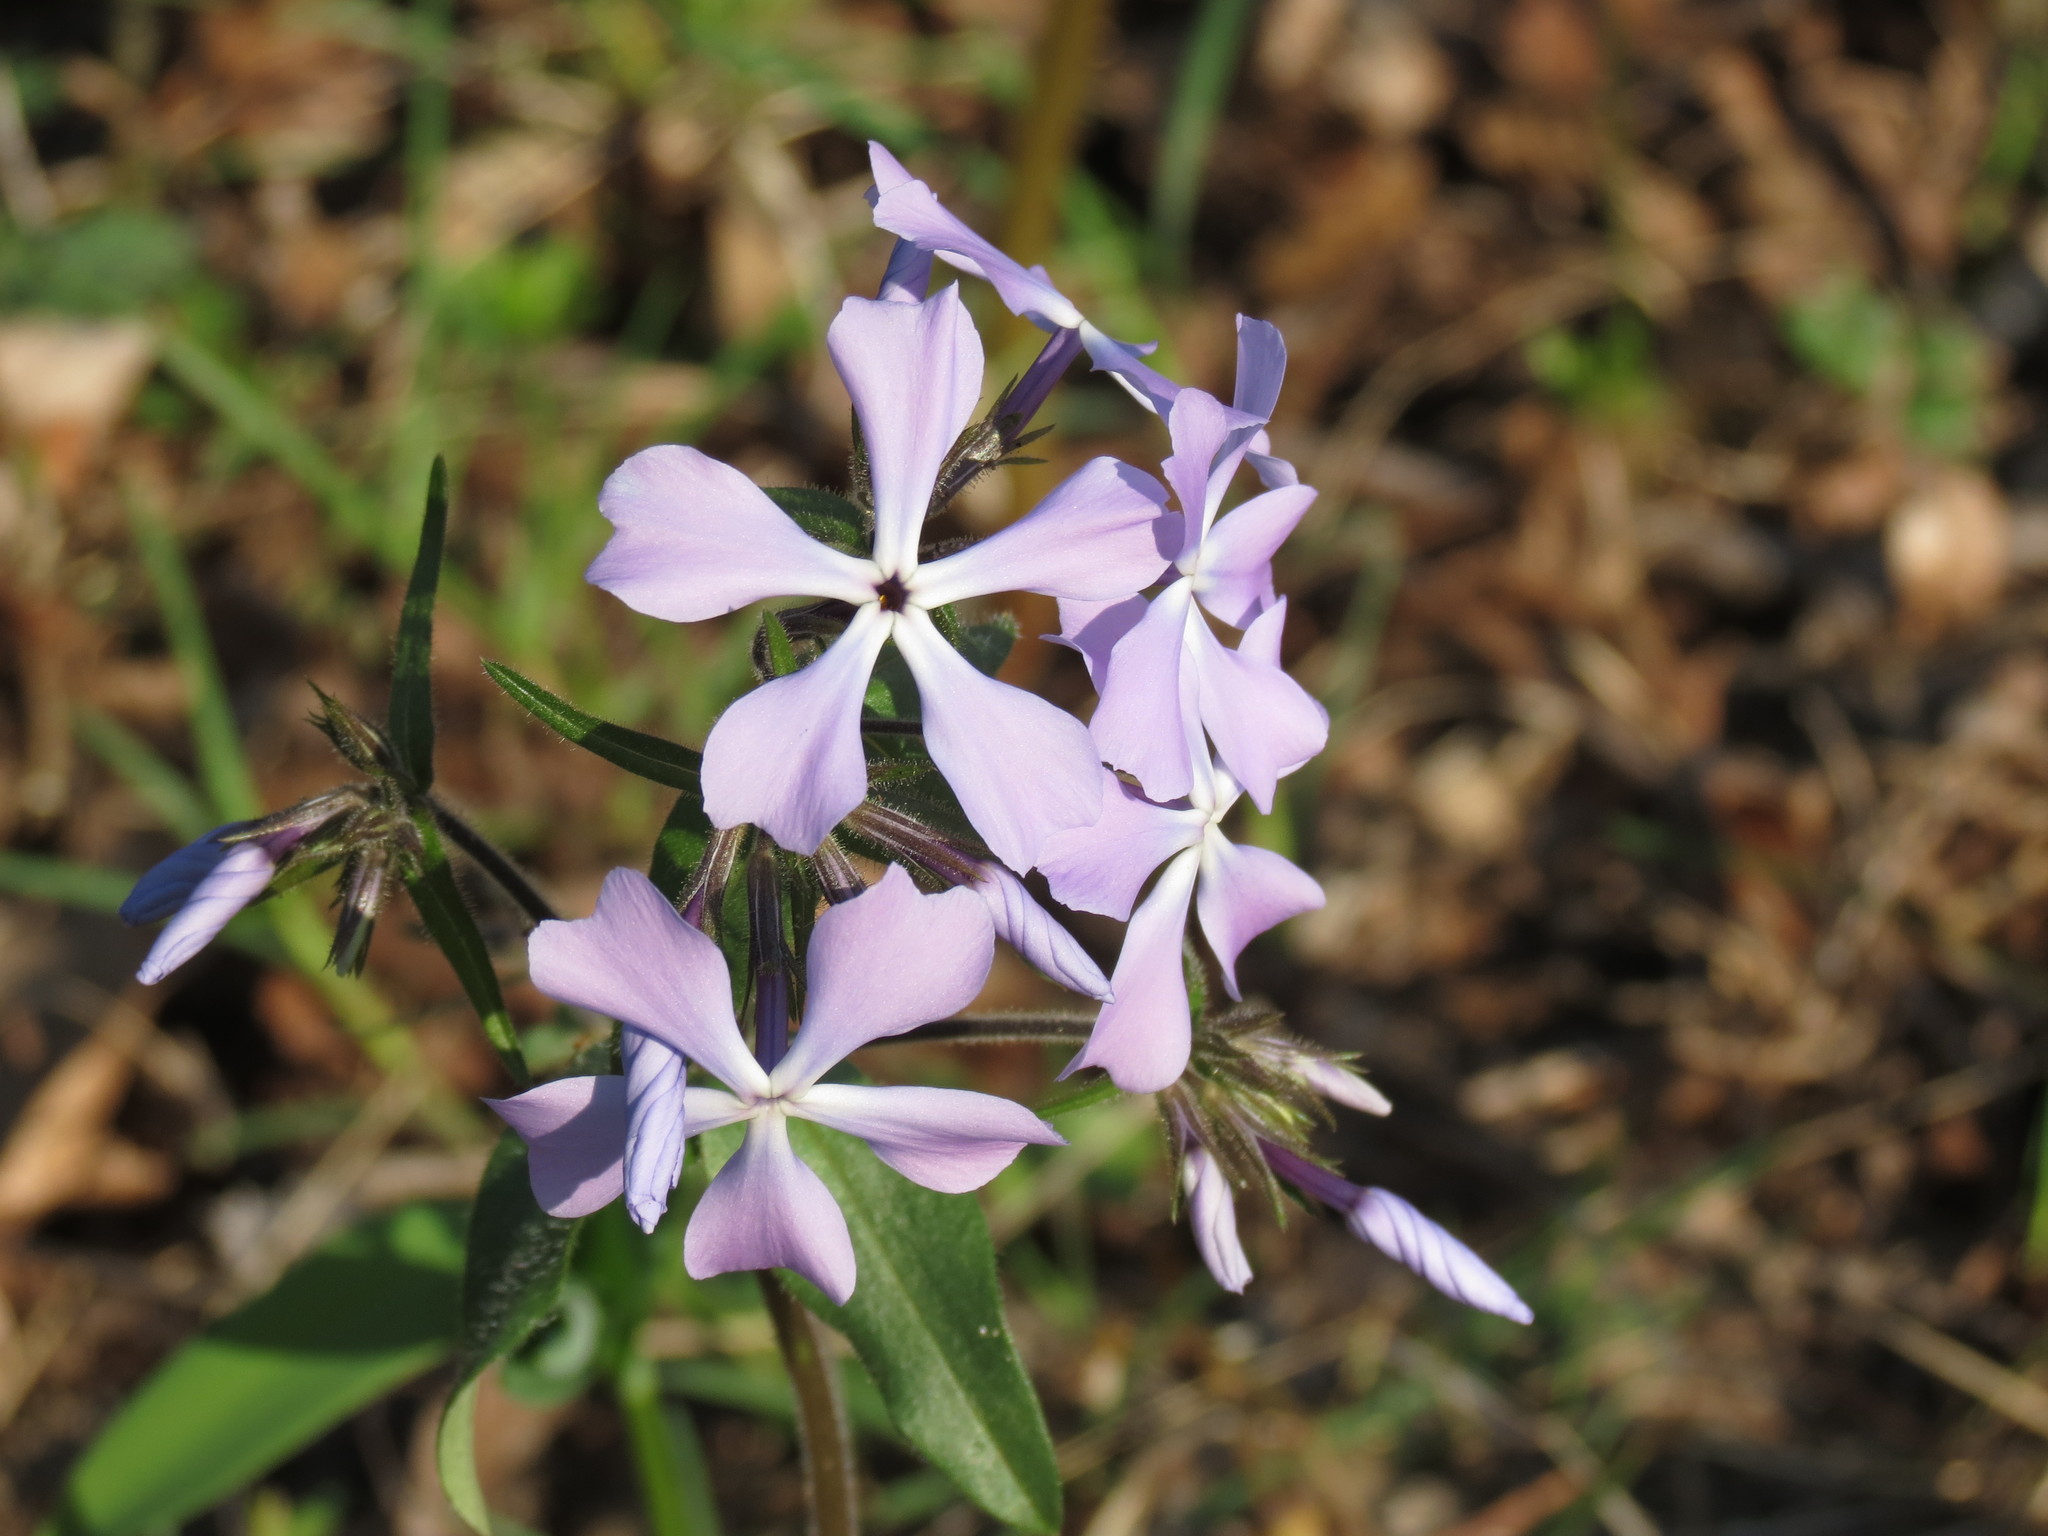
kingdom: Plantae
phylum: Tracheophyta
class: Magnoliopsida
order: Ericales
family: Polemoniaceae
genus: Phlox
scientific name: Phlox divaricata
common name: Blue phlox
